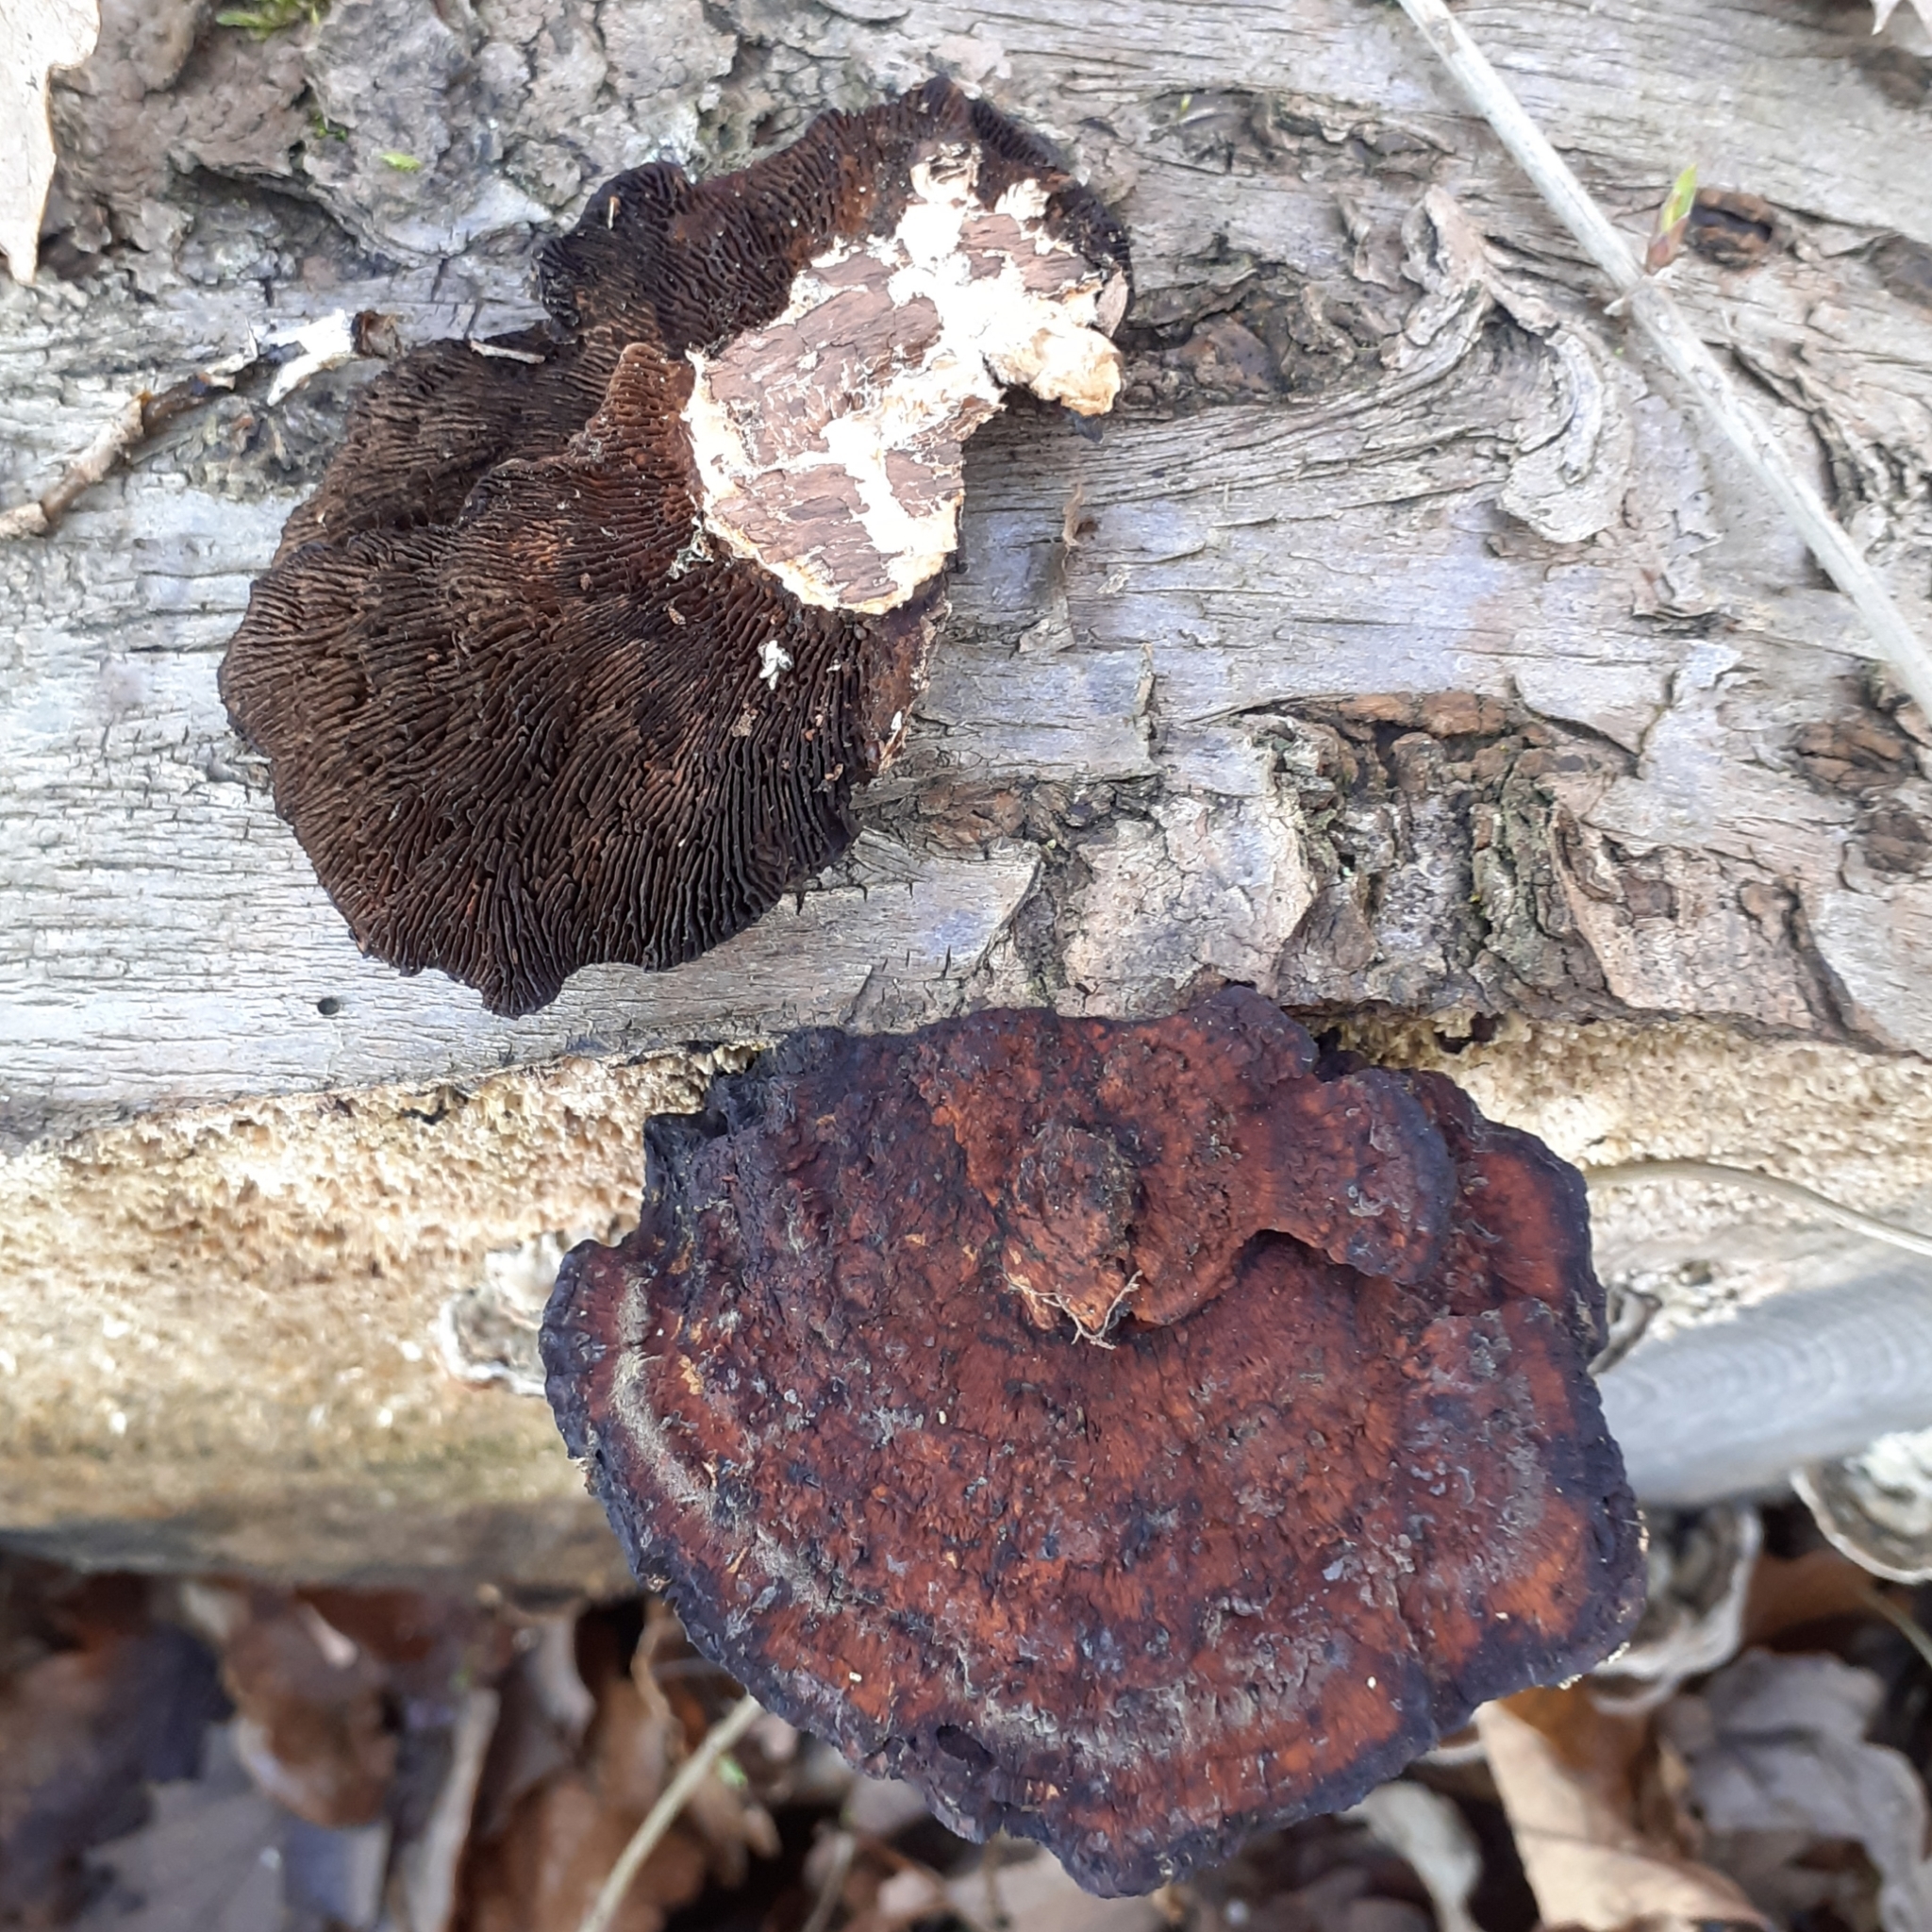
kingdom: Fungi
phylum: Basidiomycota
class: Agaricomycetes
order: Polyporales
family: Polyporaceae
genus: Daedaleopsis
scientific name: Daedaleopsis tricolor
